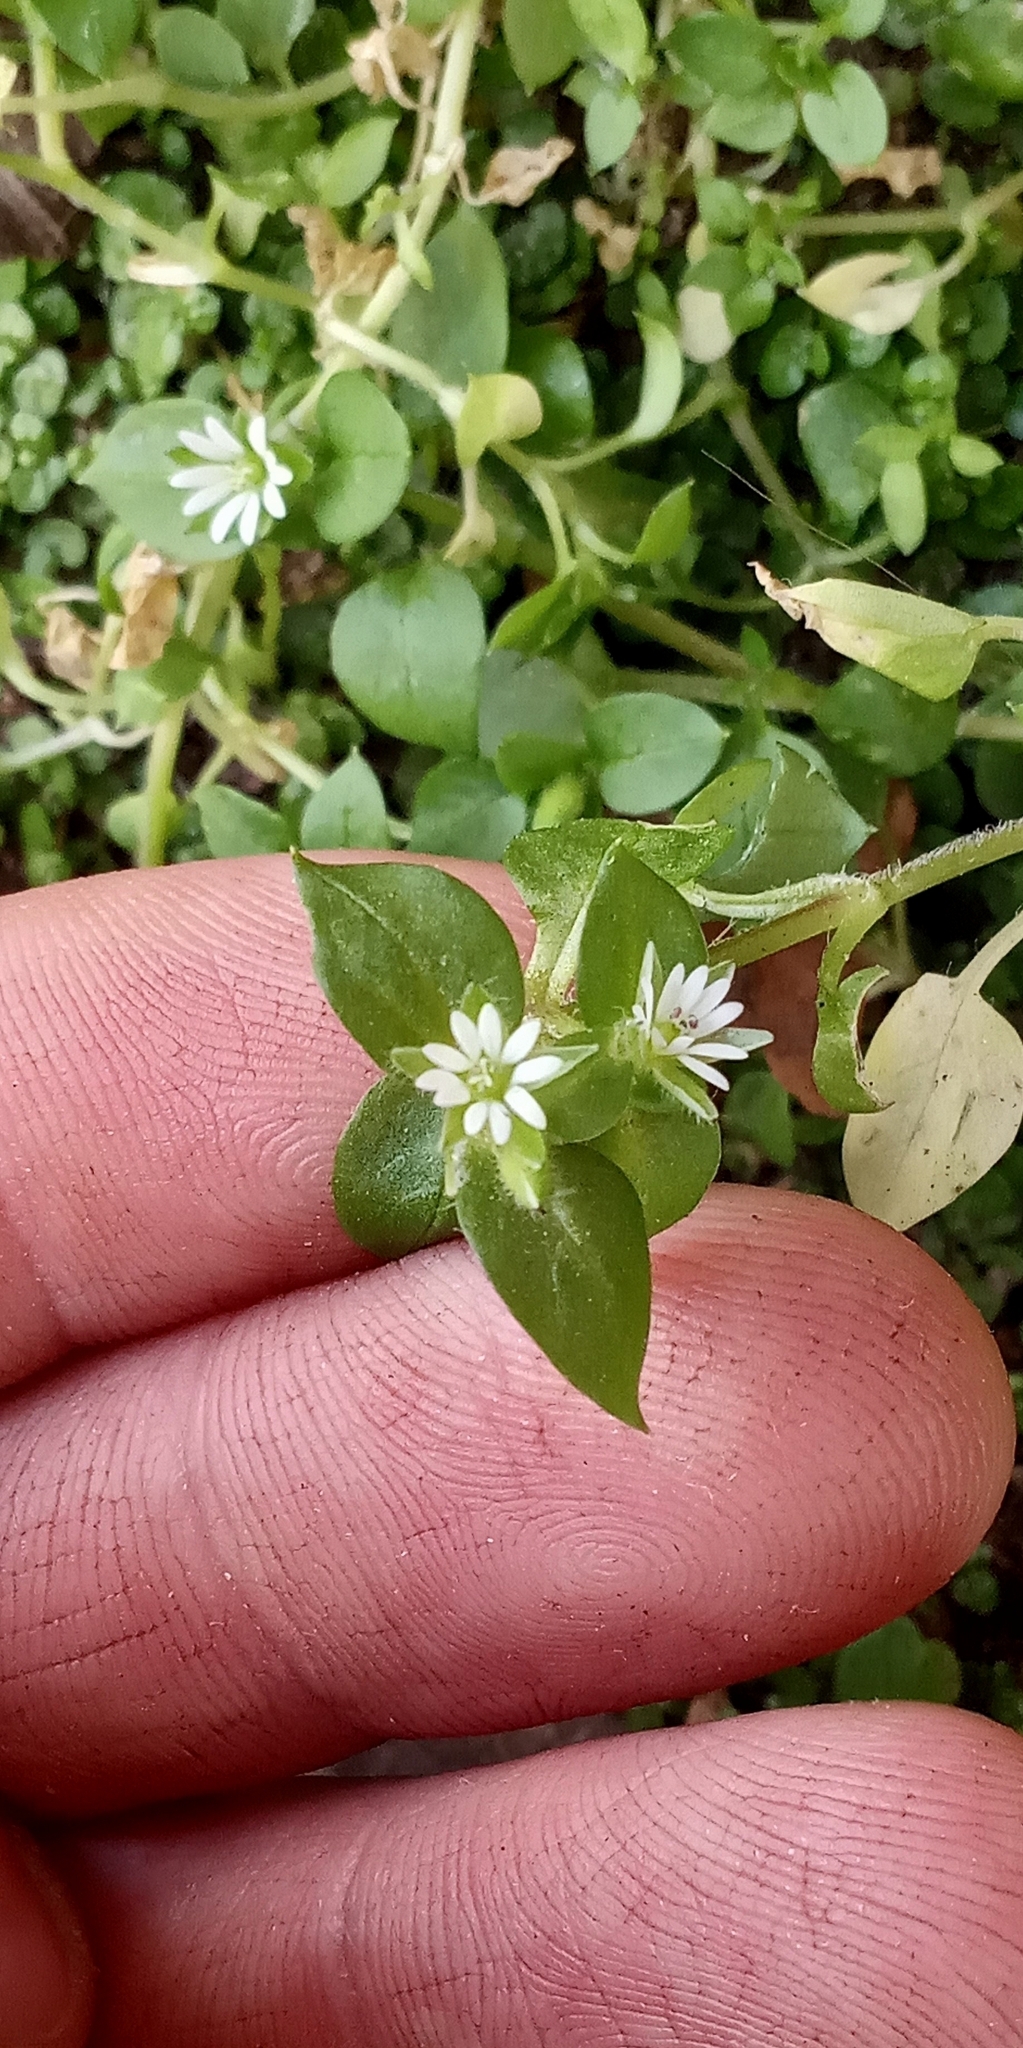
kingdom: Plantae
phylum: Tracheophyta
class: Magnoliopsida
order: Caryophyllales
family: Caryophyllaceae
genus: Stellaria
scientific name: Stellaria media
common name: Common chickweed
